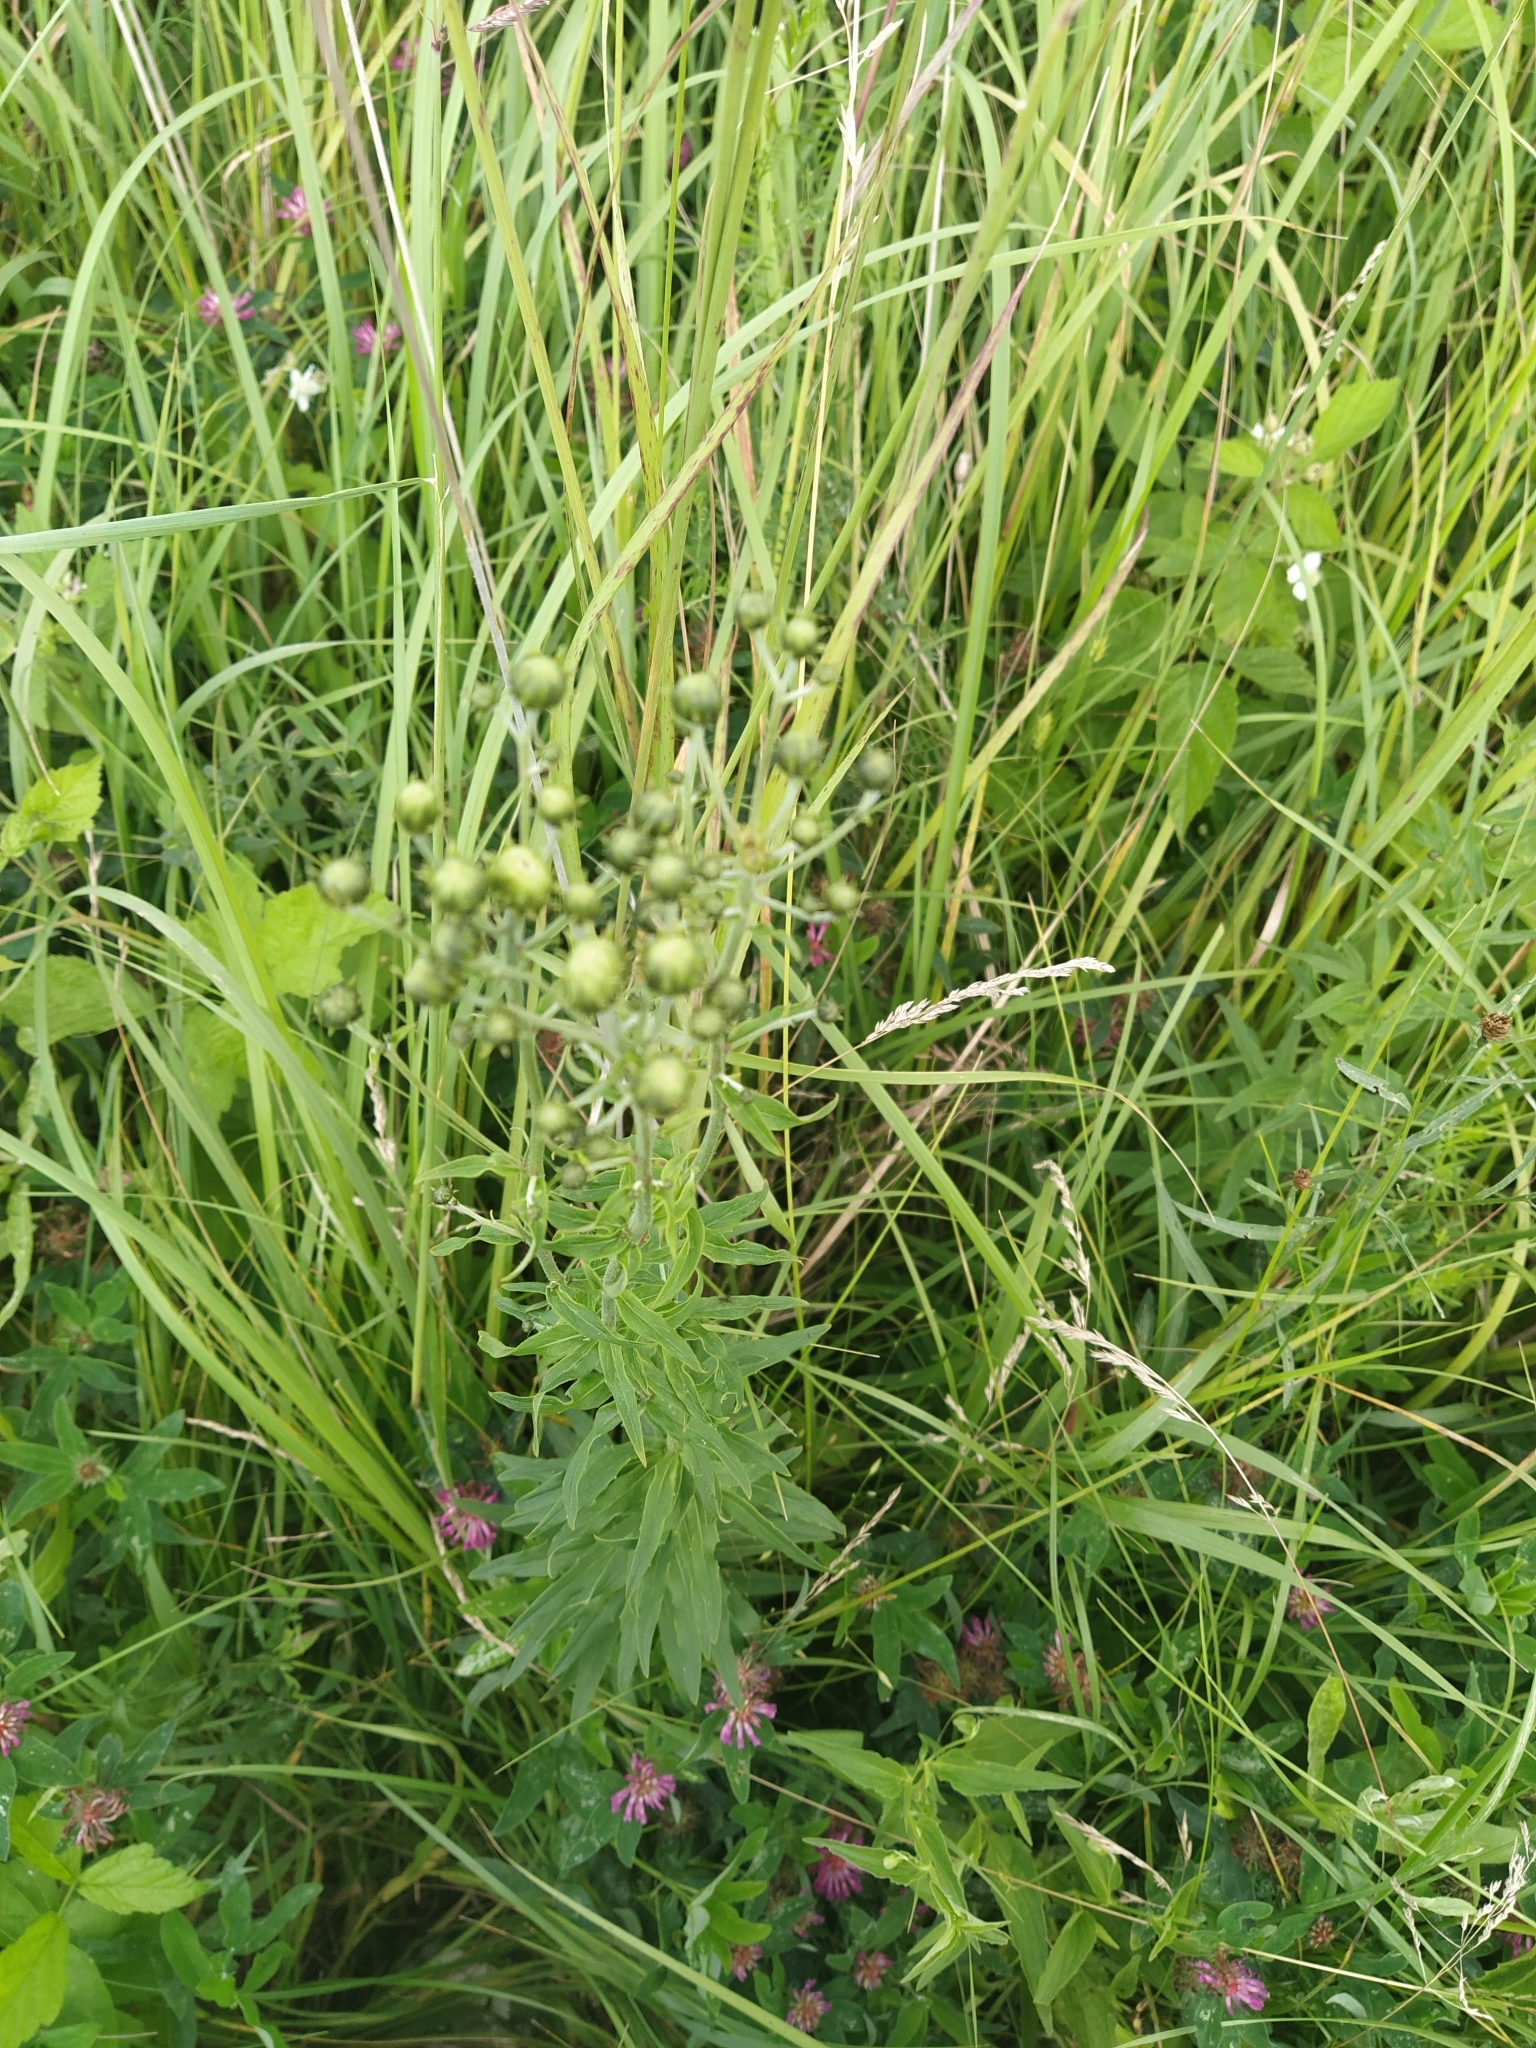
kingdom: Plantae
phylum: Tracheophyta
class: Magnoliopsida
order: Asterales
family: Asteraceae
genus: Hieracium
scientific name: Hieracium umbellatum
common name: Northern hawkweed
